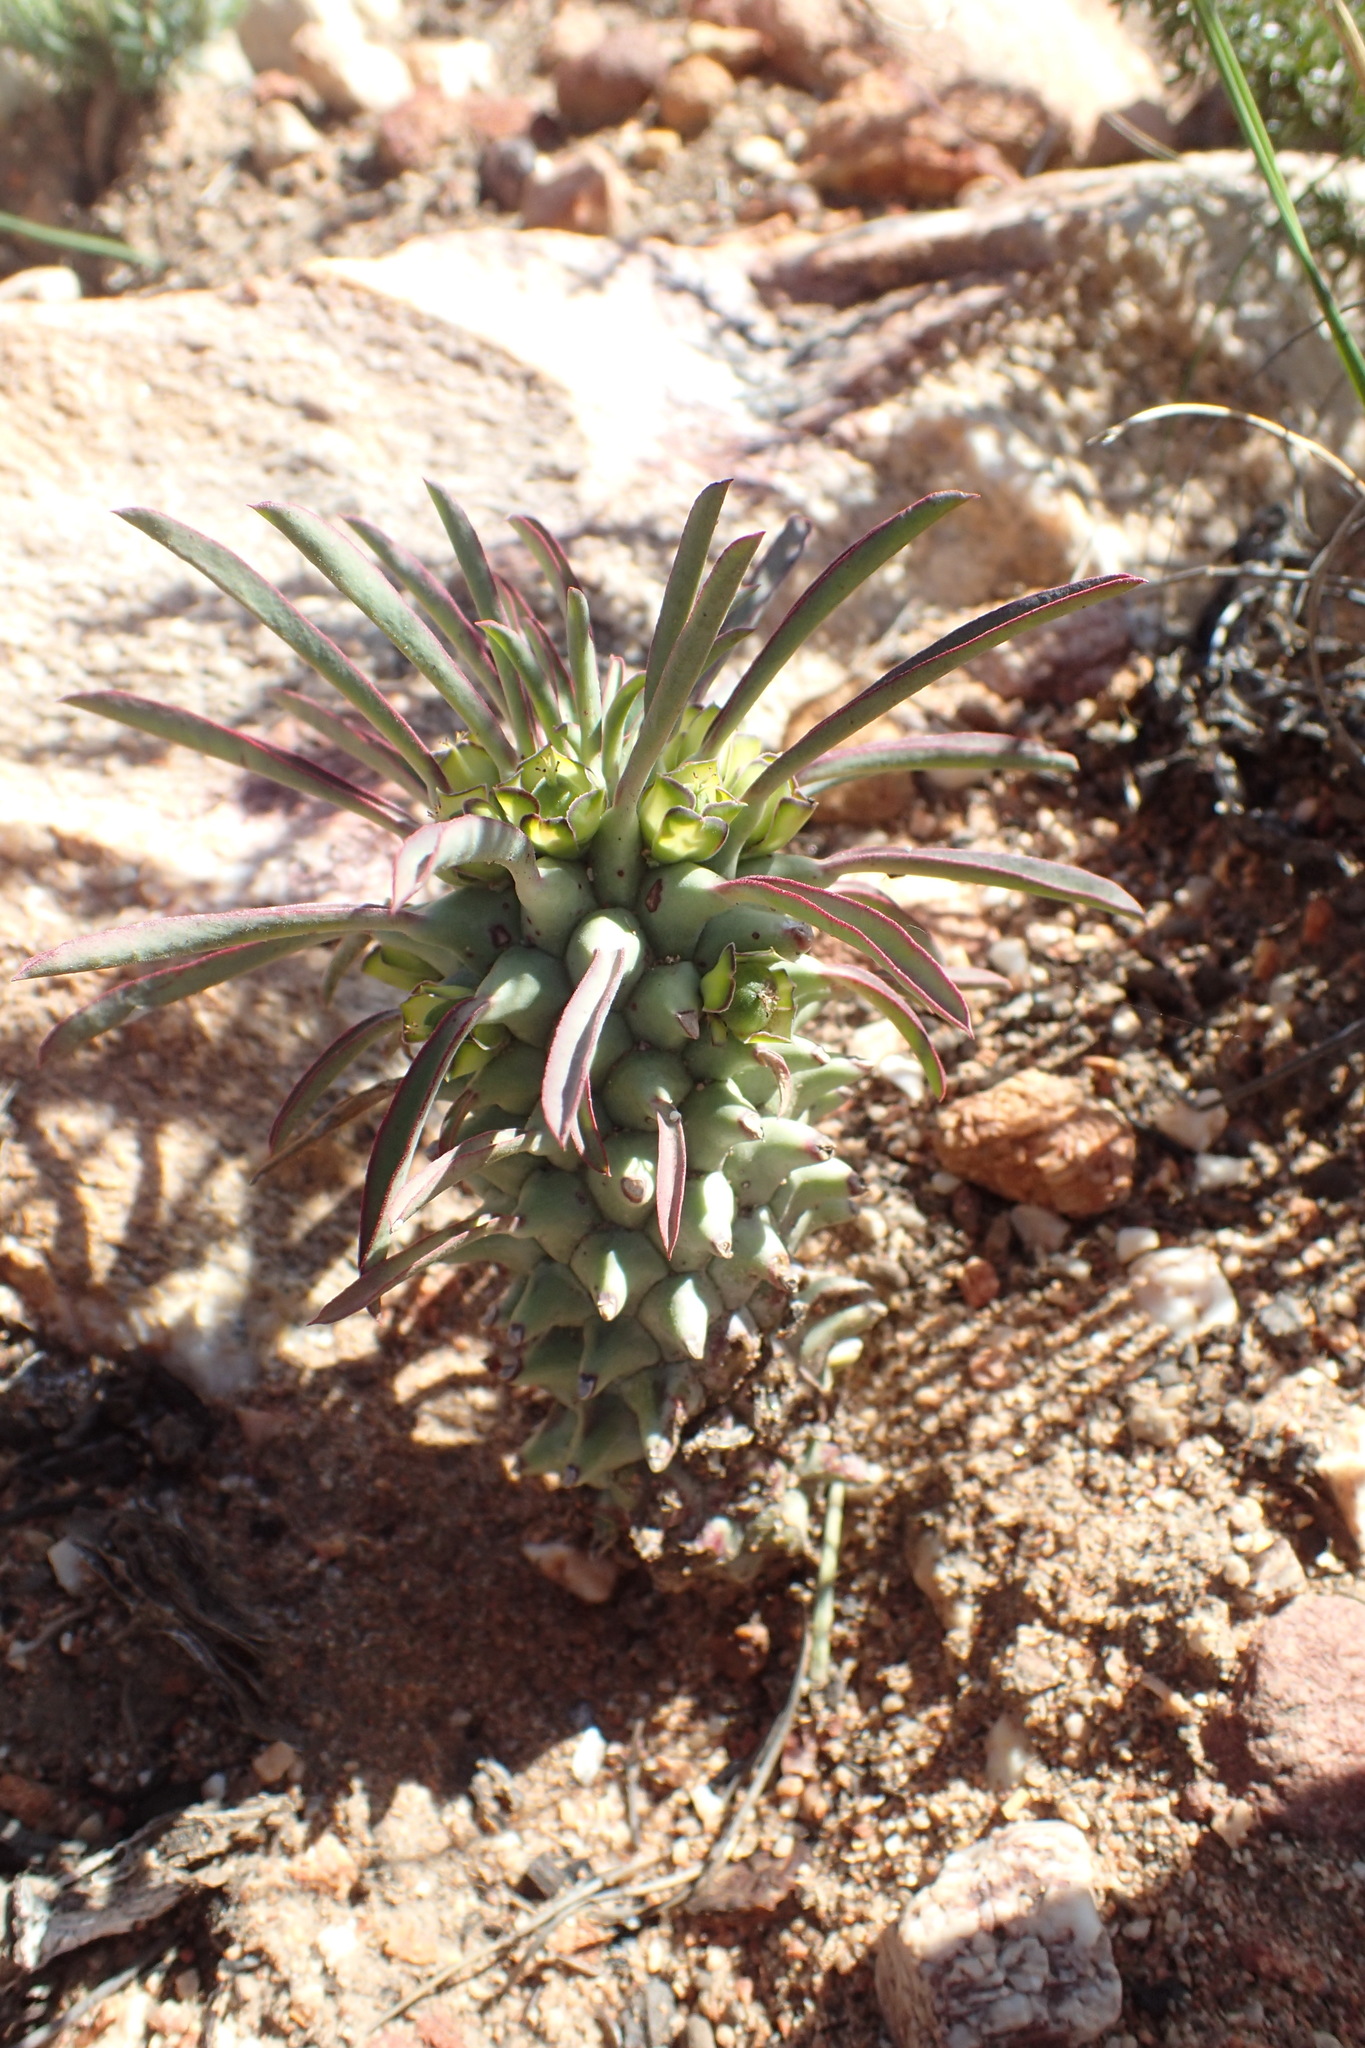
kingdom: Plantae
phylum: Tracheophyta
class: Magnoliopsida
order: Malpighiales
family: Euphorbiaceae
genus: Euphorbia
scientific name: Euphorbia clandestina
